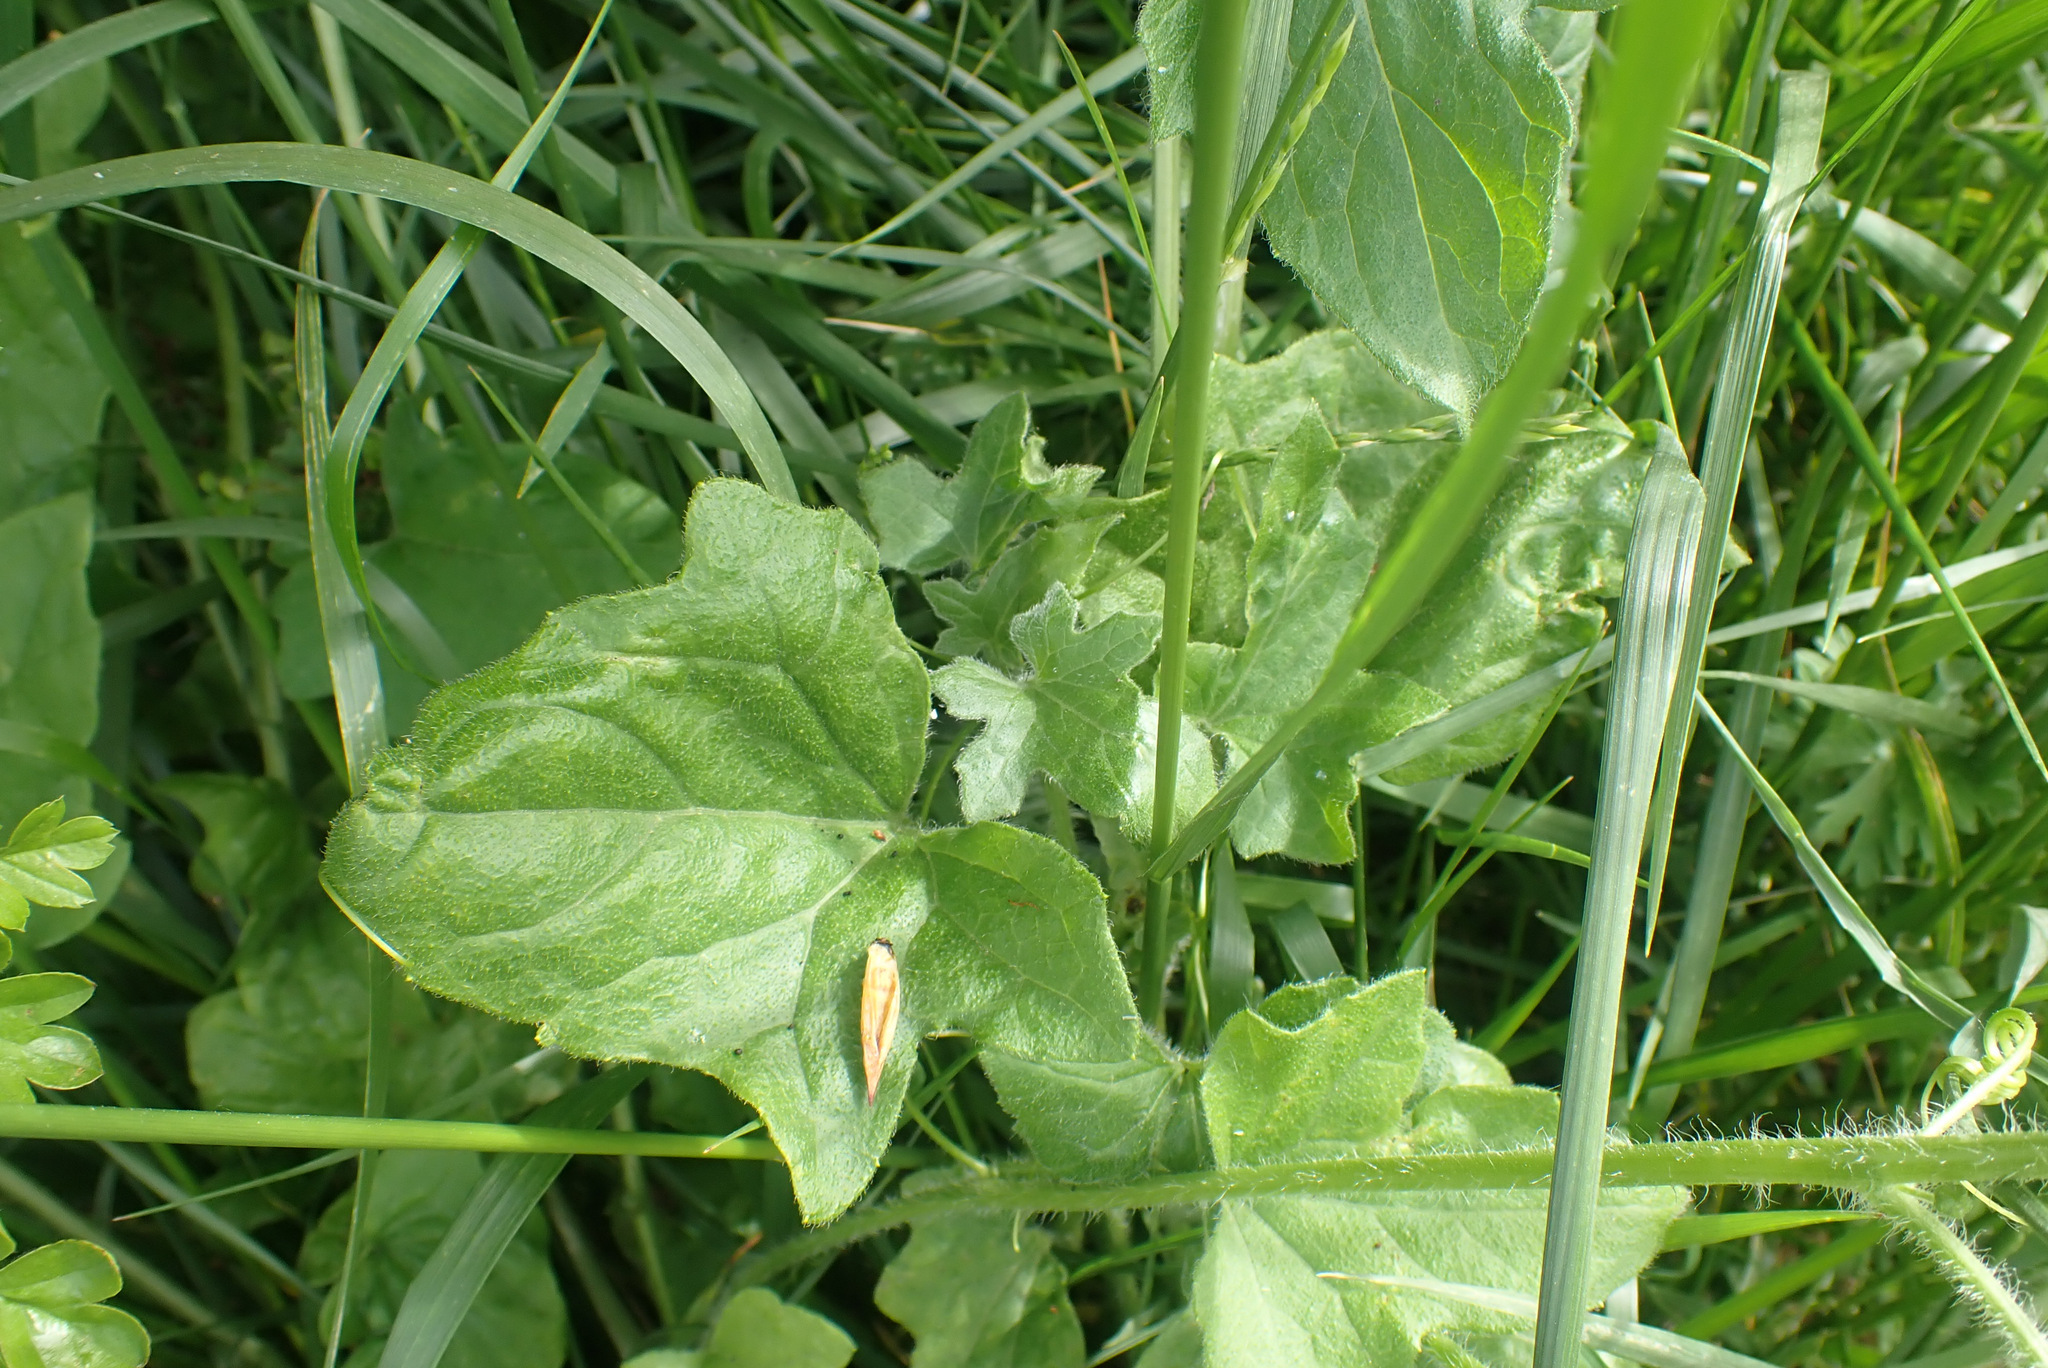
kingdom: Plantae
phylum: Tracheophyta
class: Magnoliopsida
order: Cucurbitales
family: Cucurbitaceae
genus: Bryonia
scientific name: Bryonia dioica
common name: White bryony
